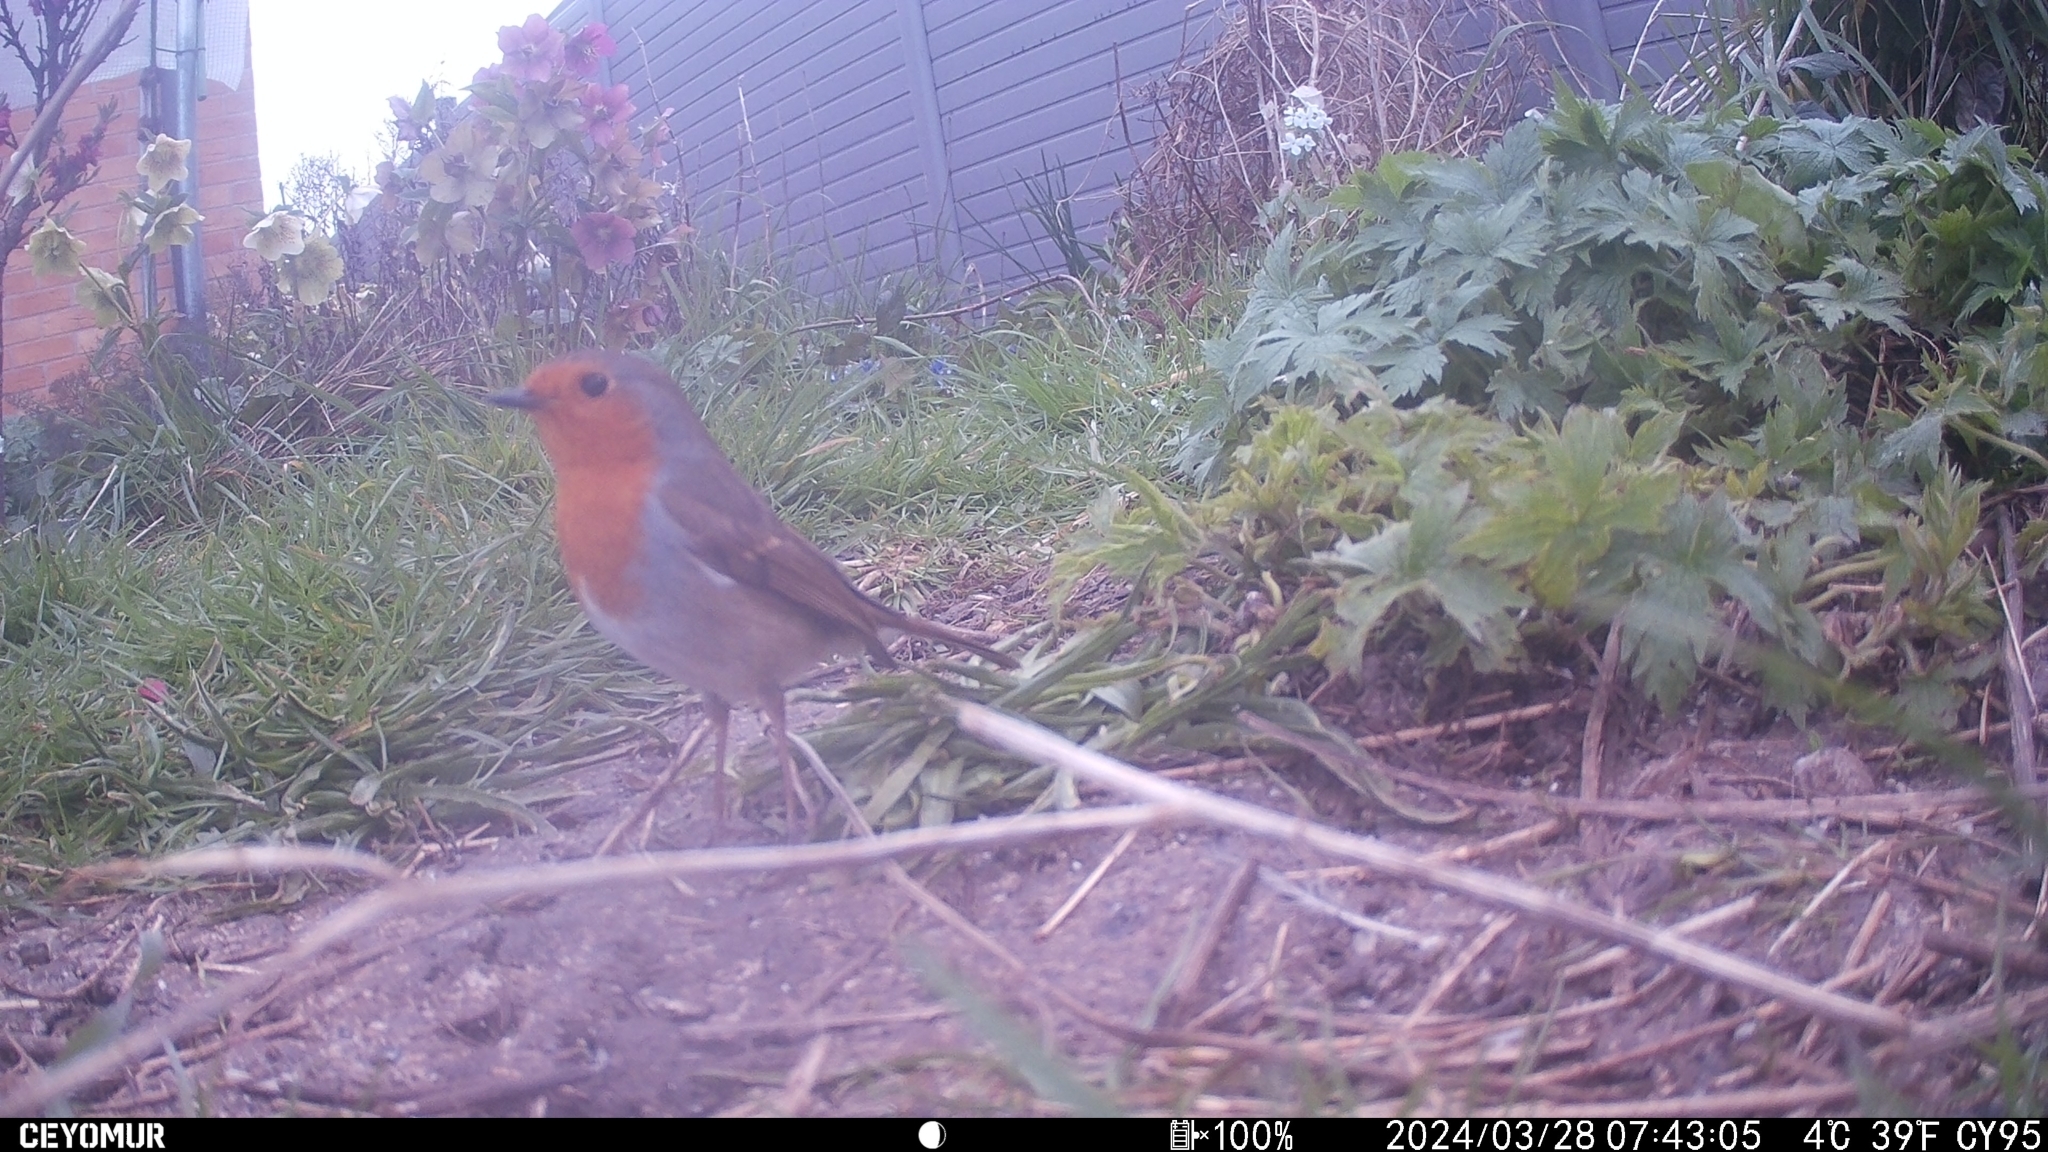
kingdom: Animalia
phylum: Chordata
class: Aves
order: Passeriformes
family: Muscicapidae
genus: Erithacus
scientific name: Erithacus rubecula
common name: European robin
